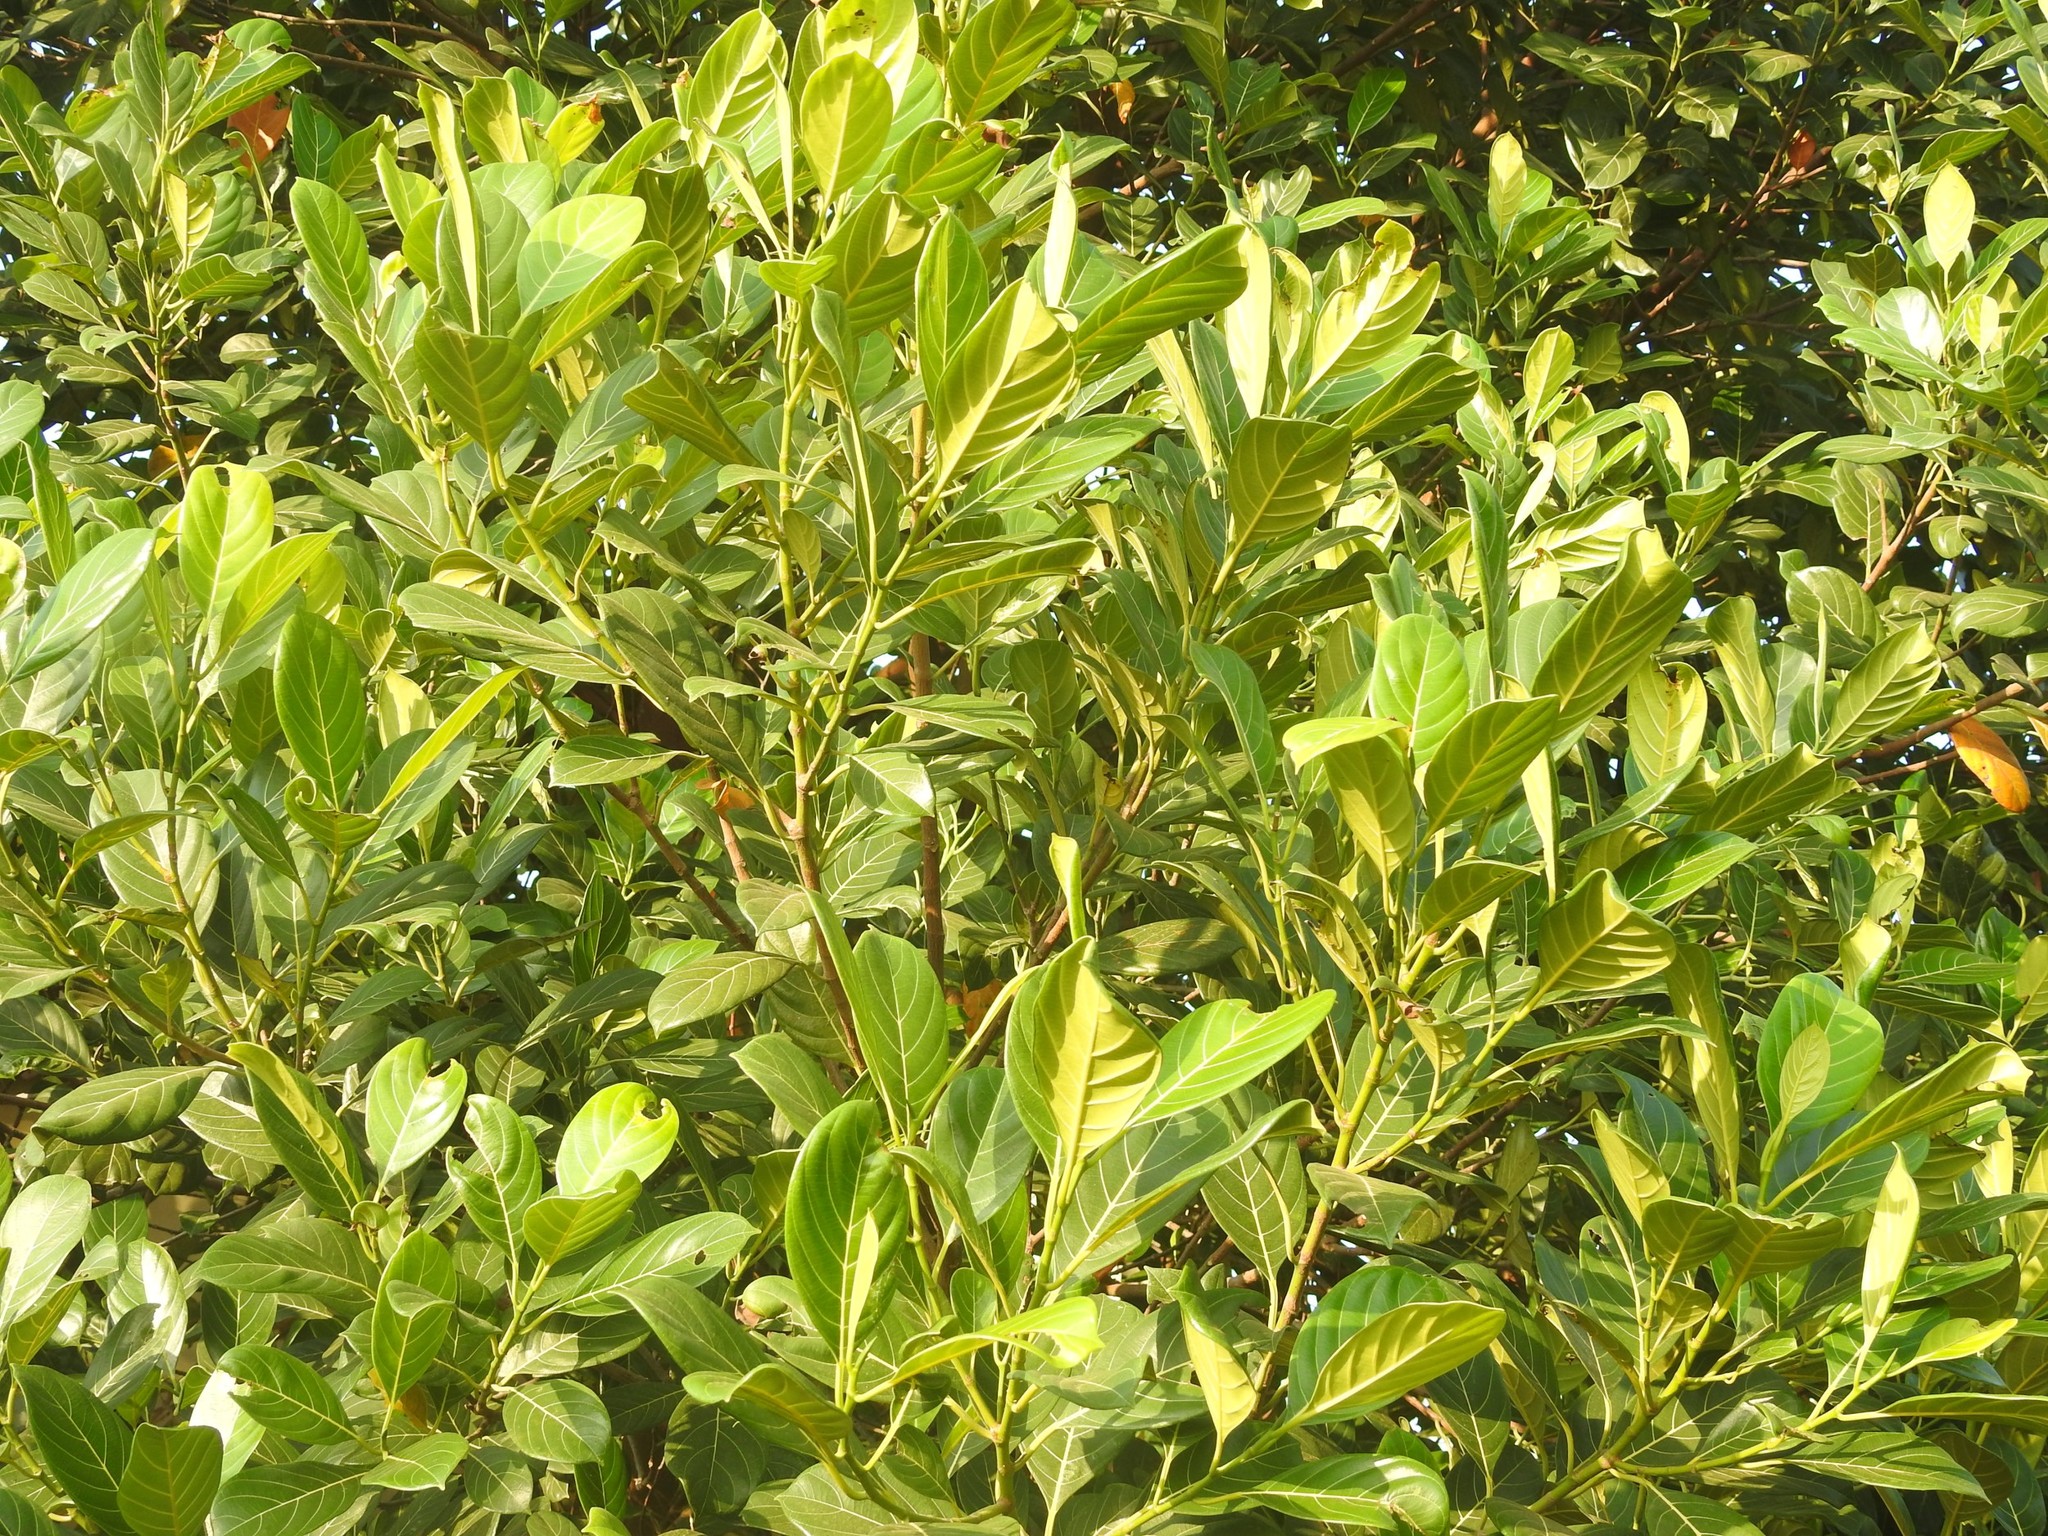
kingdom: Plantae
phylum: Tracheophyta
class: Magnoliopsida
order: Rosales
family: Moraceae
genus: Artocarpus
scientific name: Artocarpus heterophyllus
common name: Jackfruit
